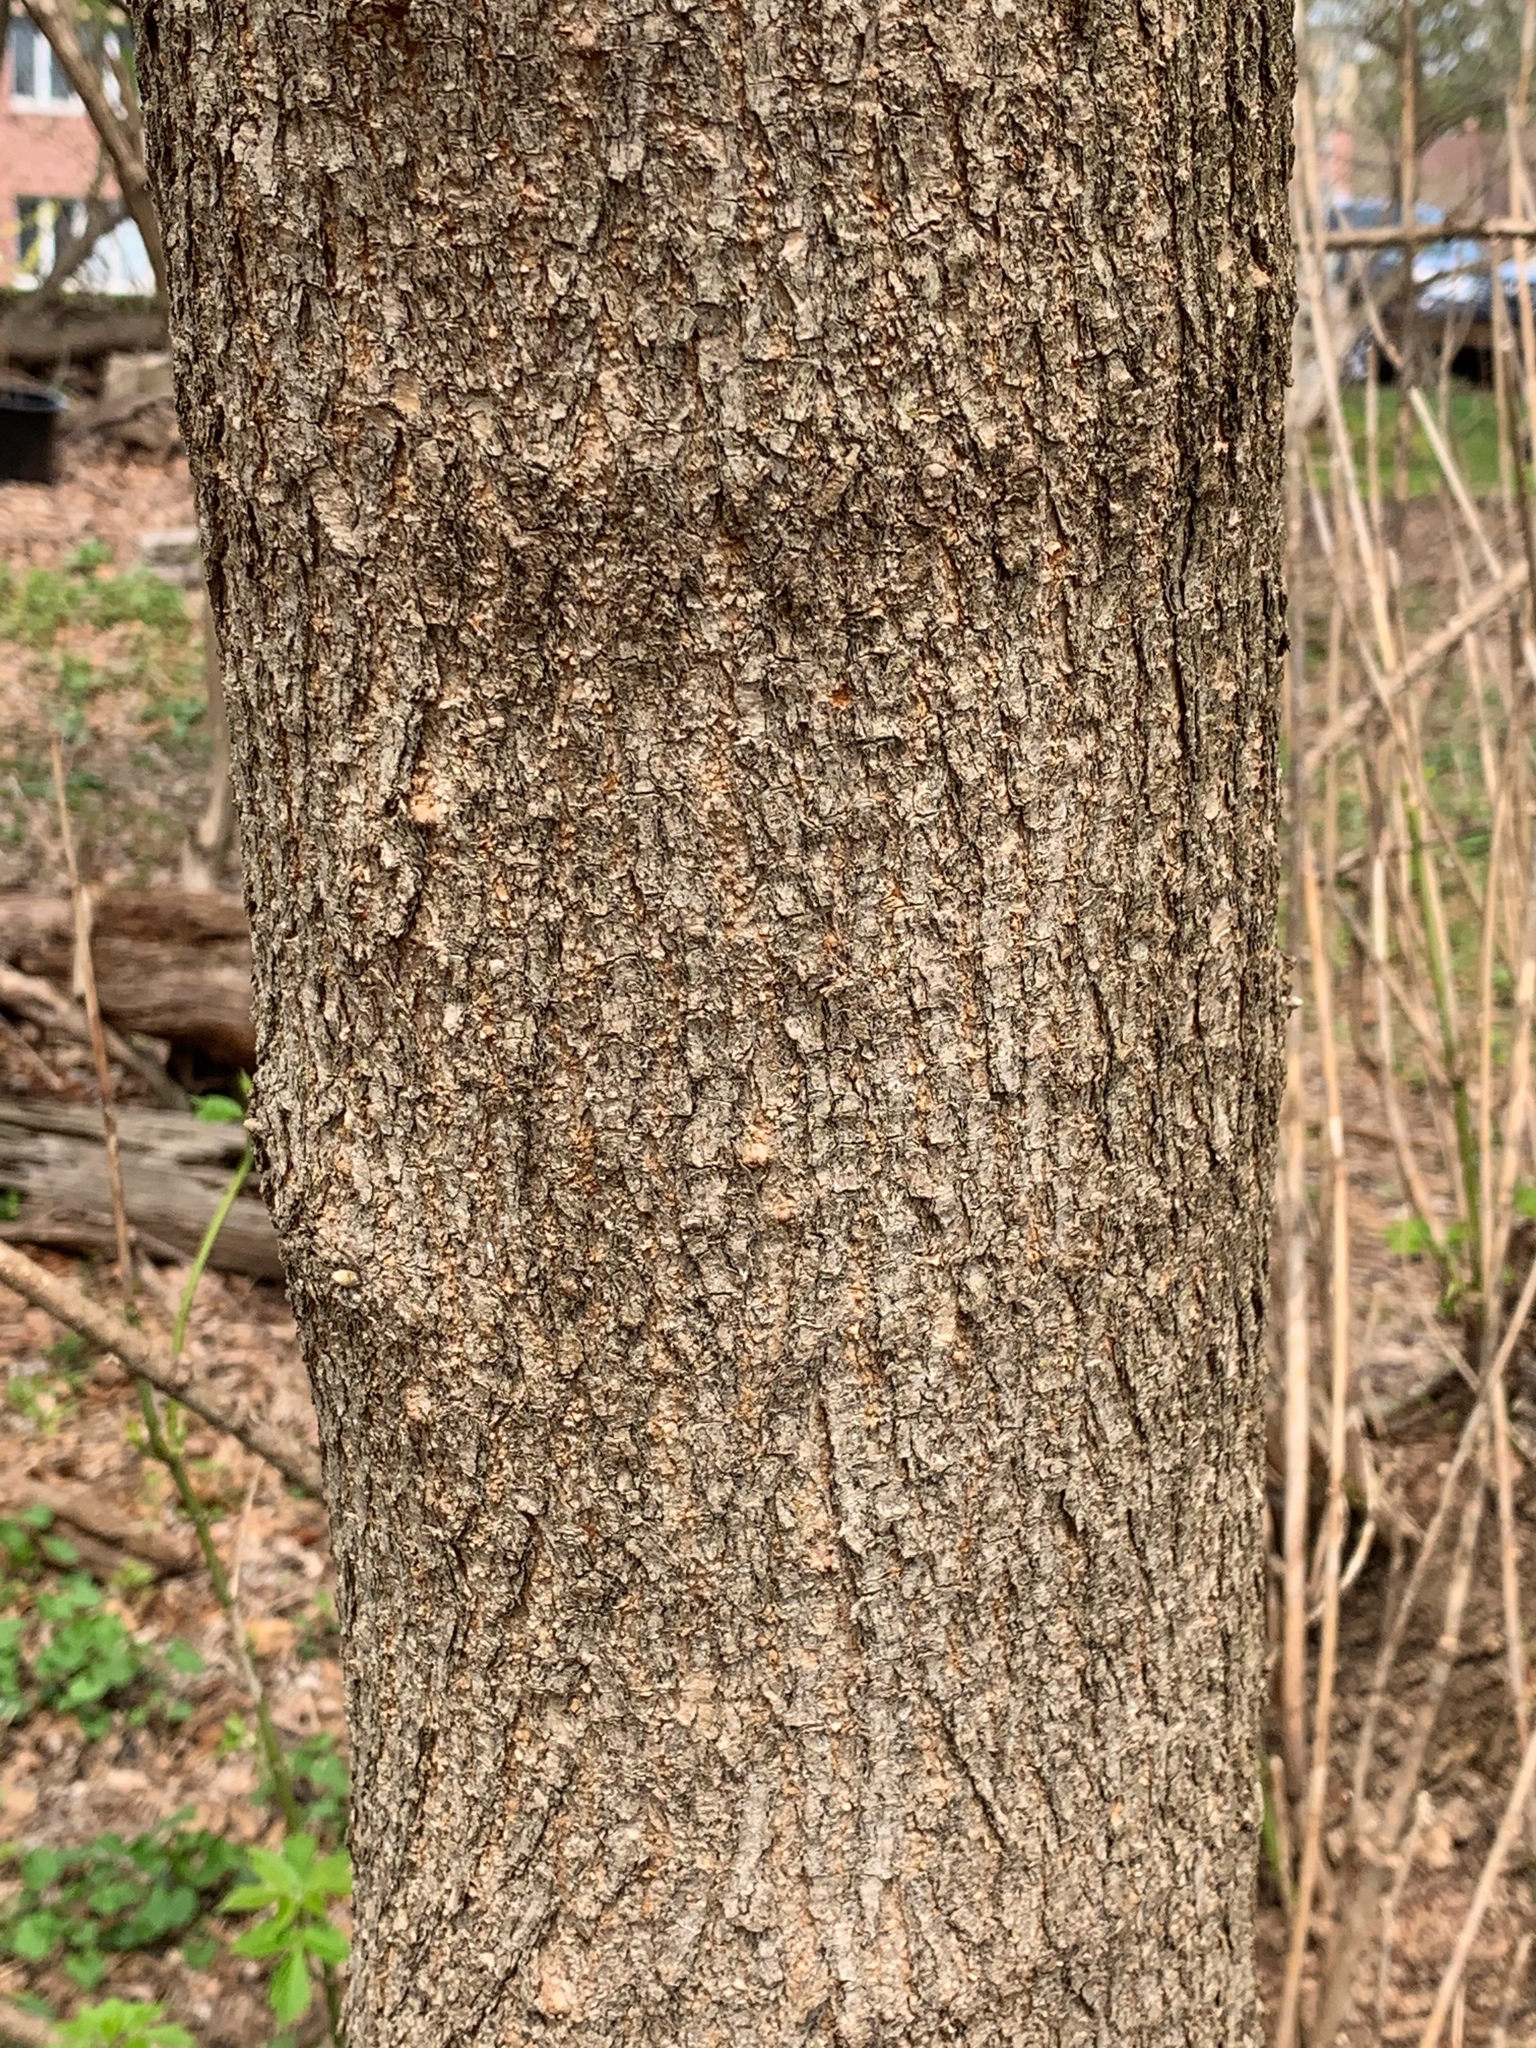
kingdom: Plantae
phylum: Tracheophyta
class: Magnoliopsida
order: Sapindales
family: Sapindaceae
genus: Acer
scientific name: Acer negundo
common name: Ashleaf maple
